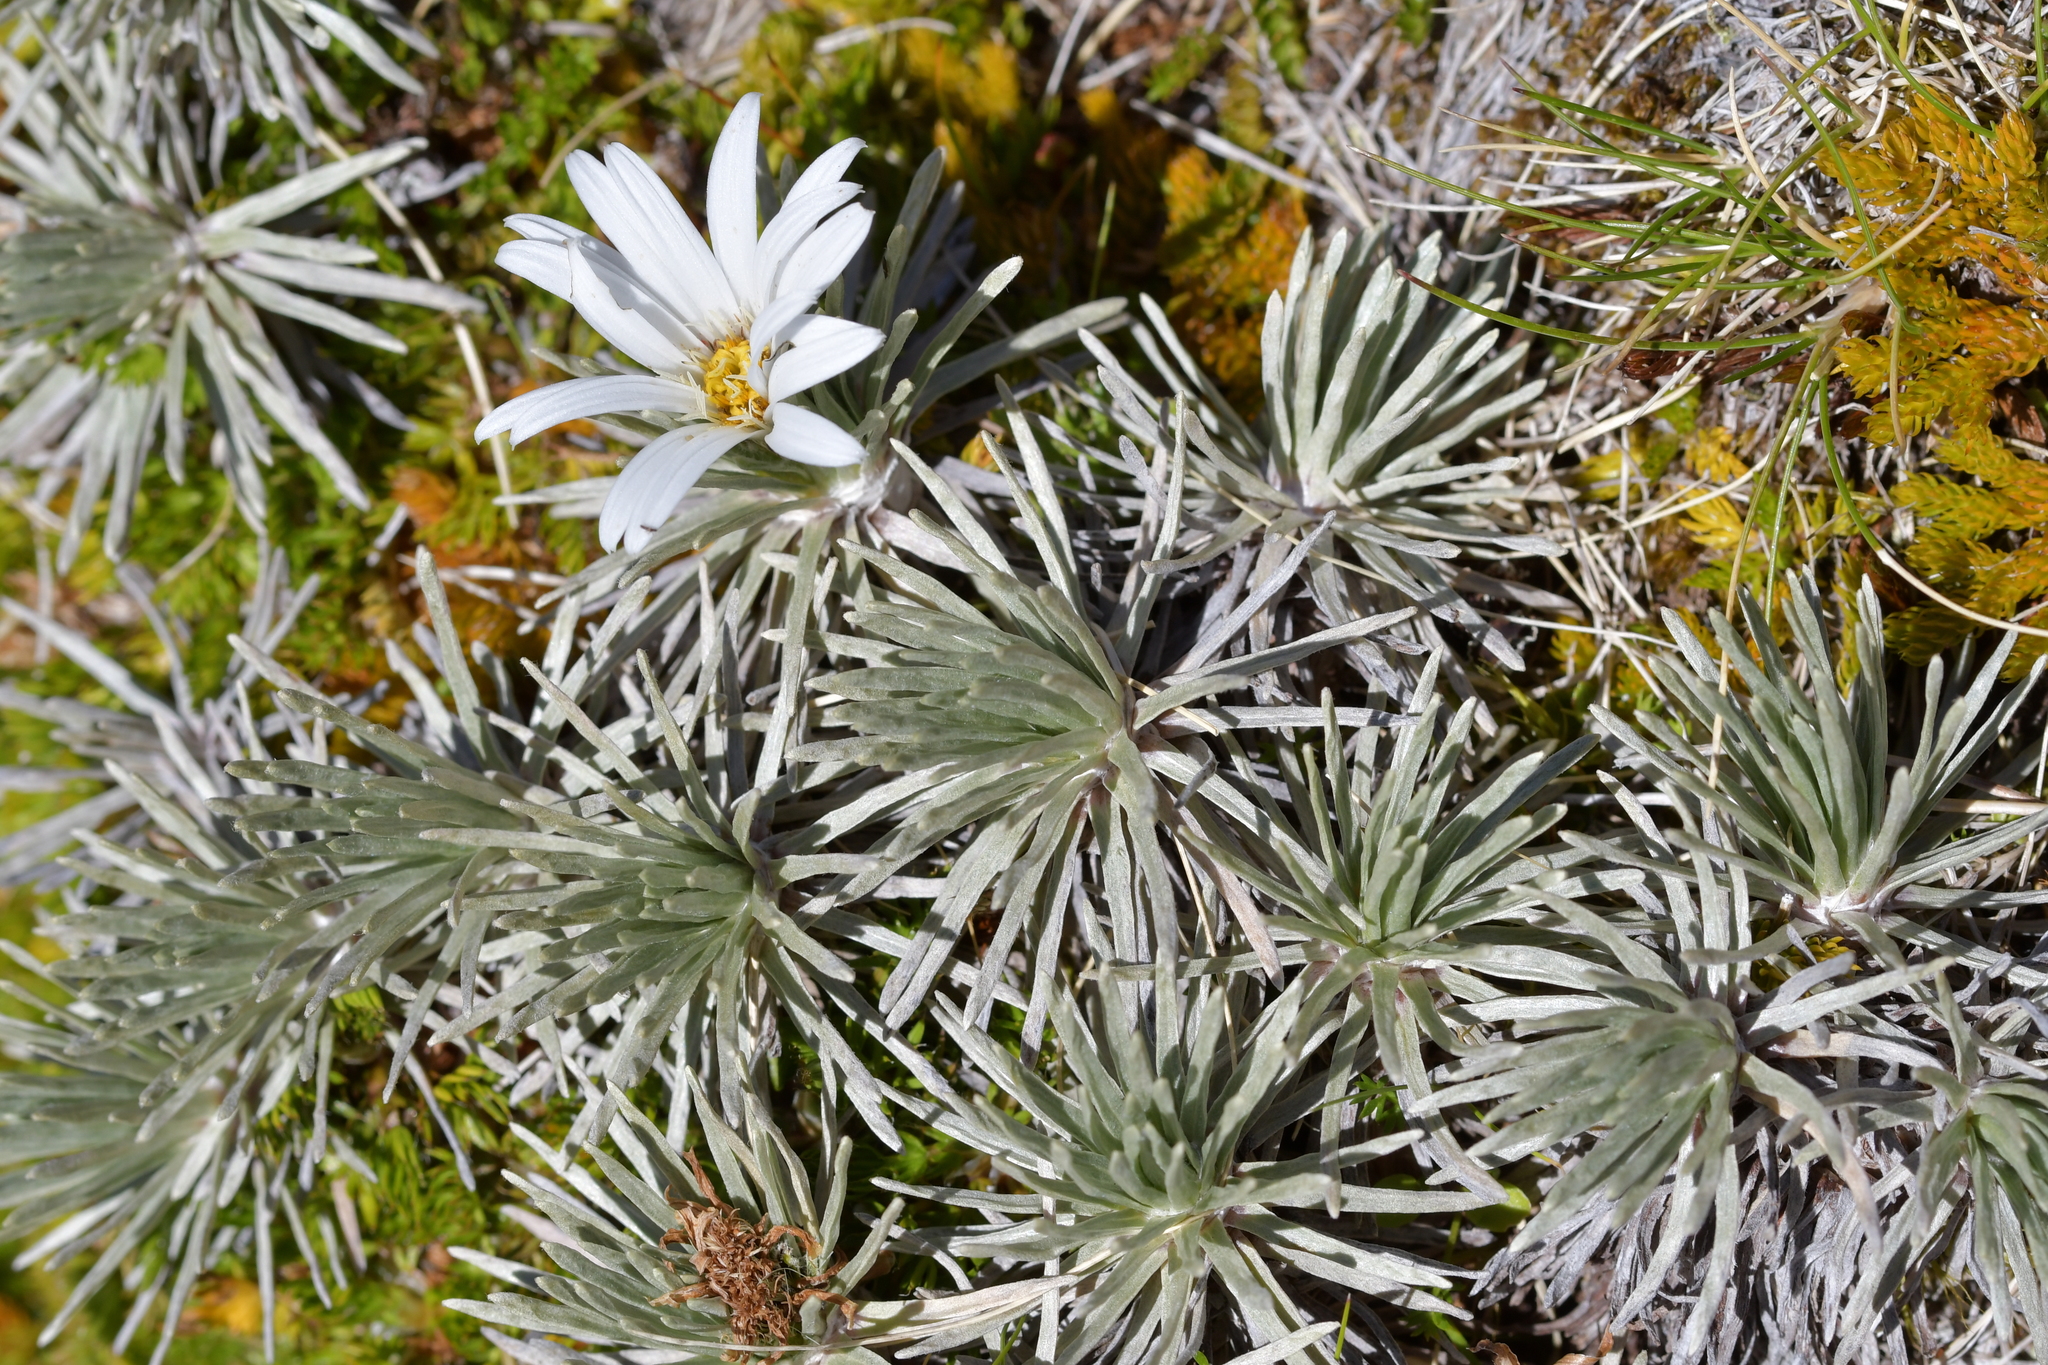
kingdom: Plantae
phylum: Tracheophyta
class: Magnoliopsida
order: Asterales
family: Asteraceae
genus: Celmisia
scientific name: Celmisia sessiliflora
